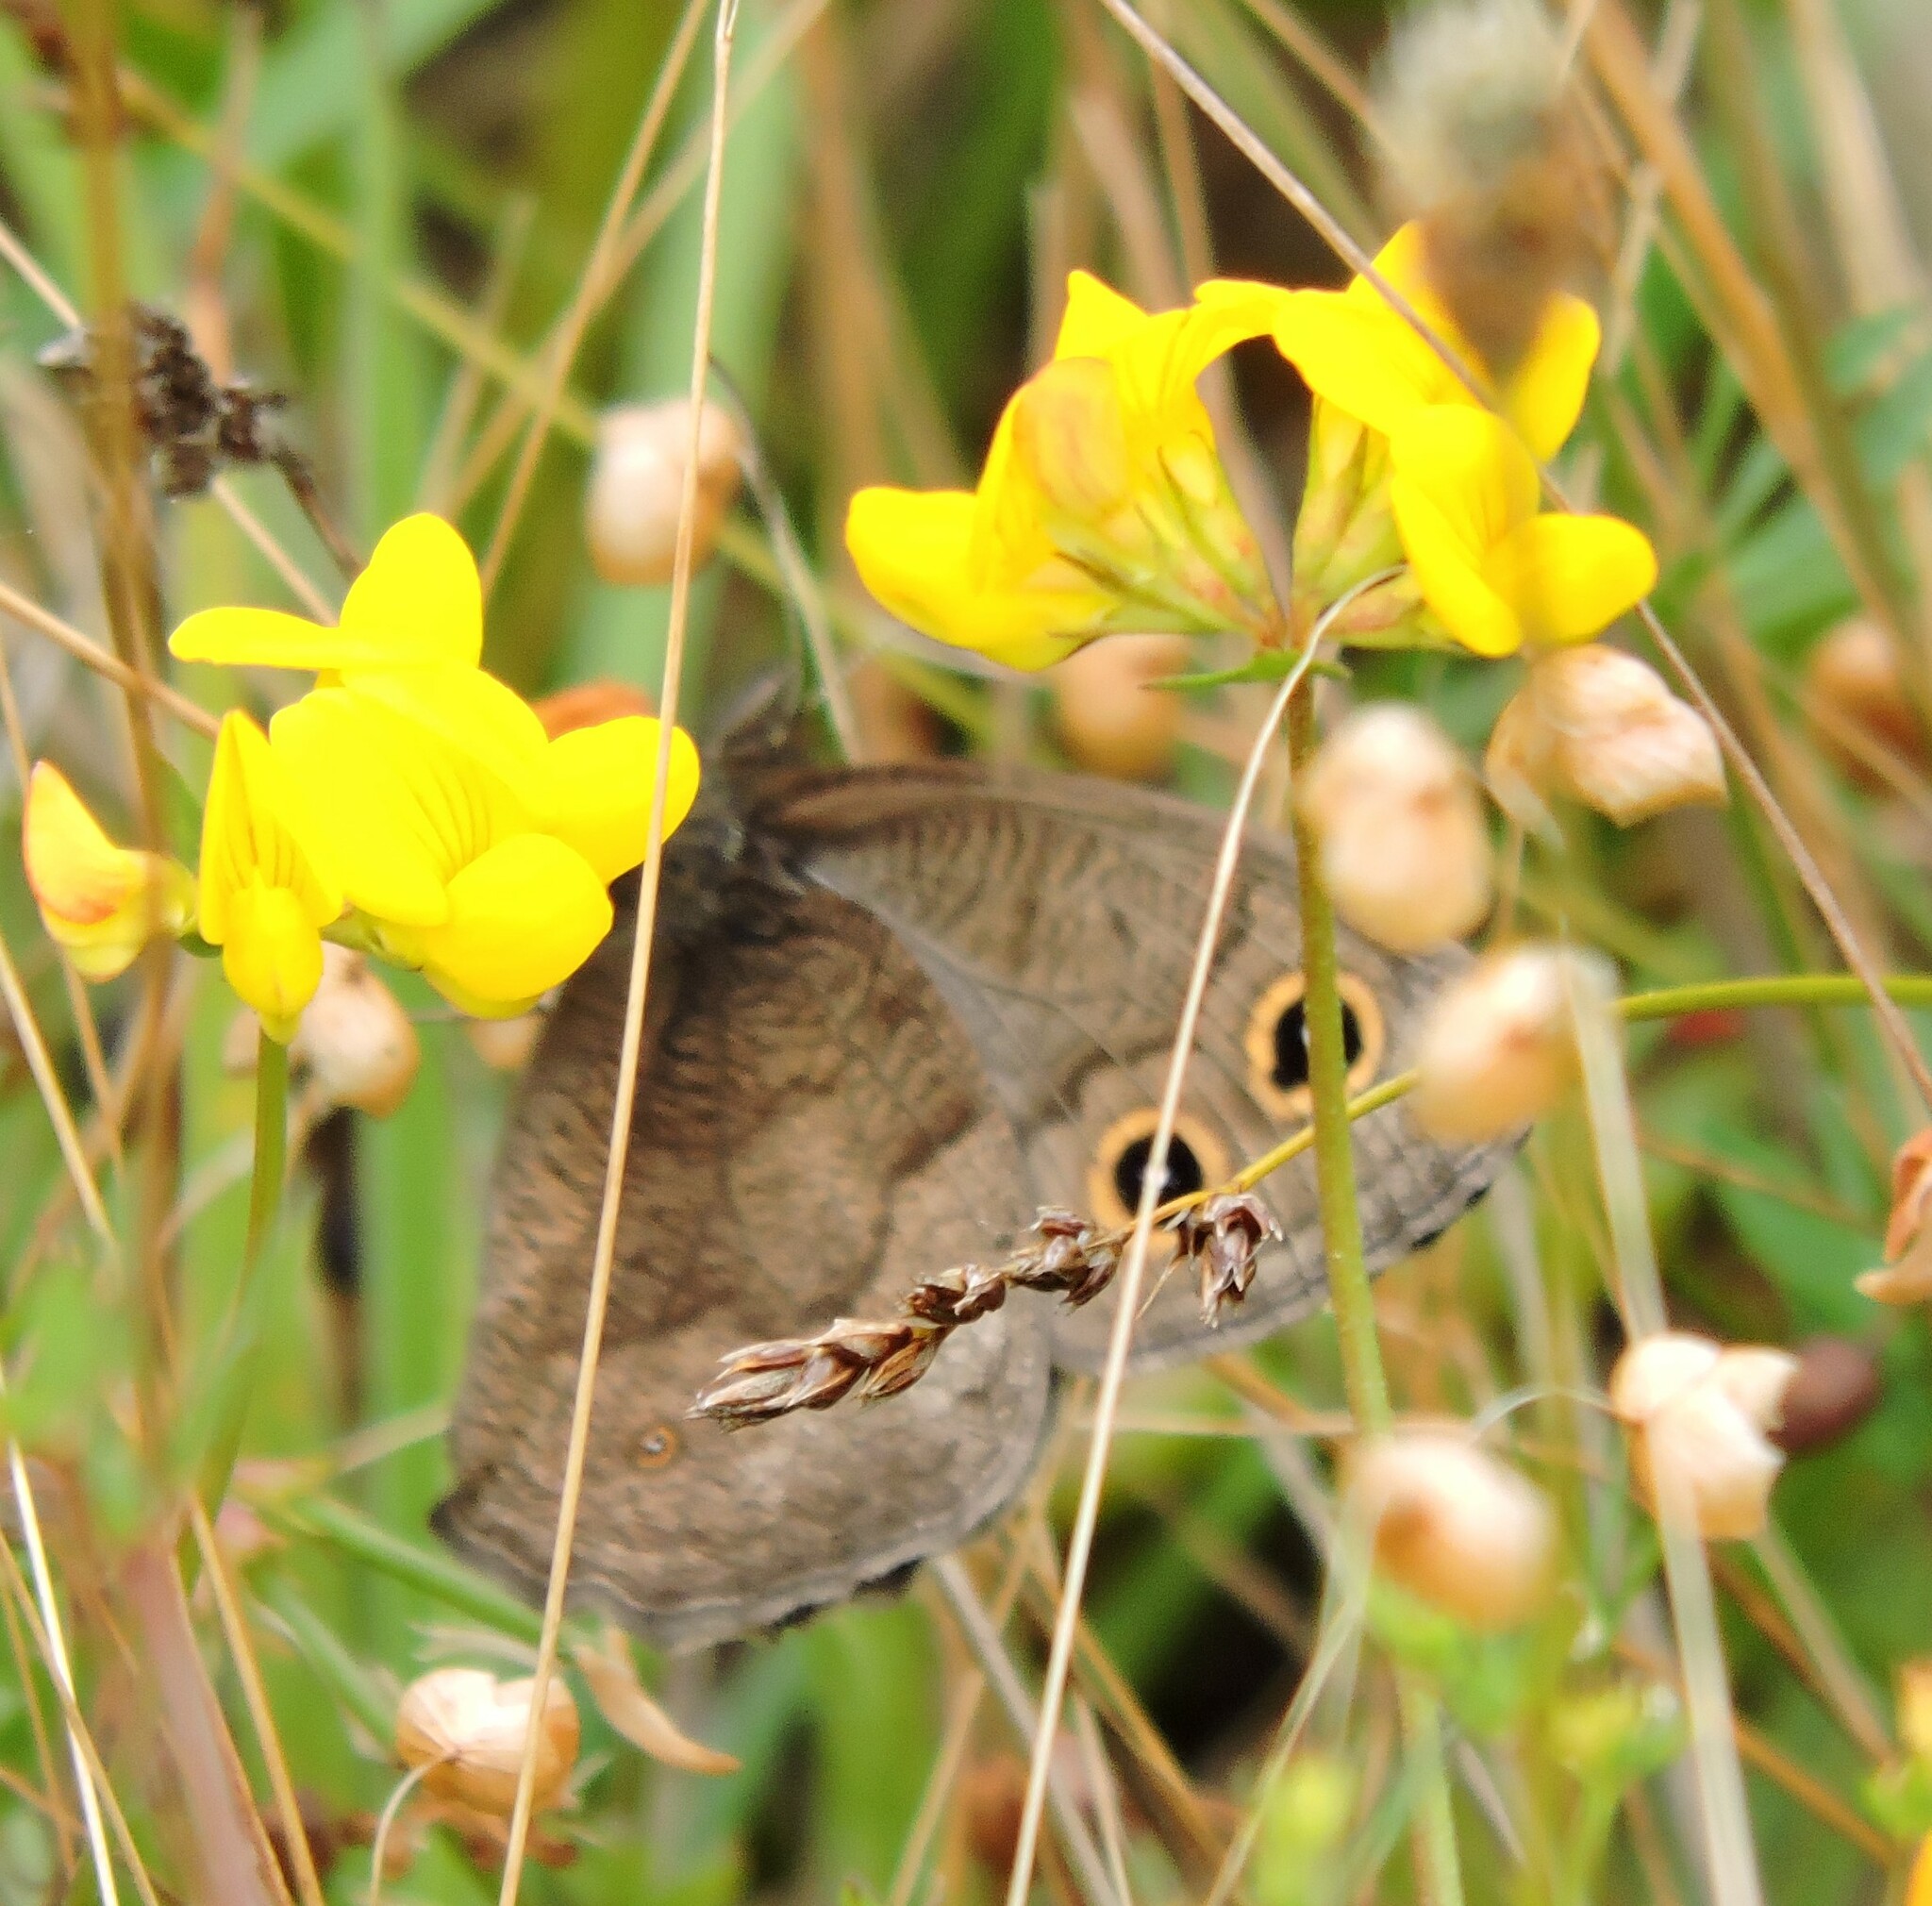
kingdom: Animalia
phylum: Arthropoda
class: Insecta
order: Lepidoptera
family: Nymphalidae
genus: Cercyonis
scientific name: Cercyonis pegala
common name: Common wood-nymph
